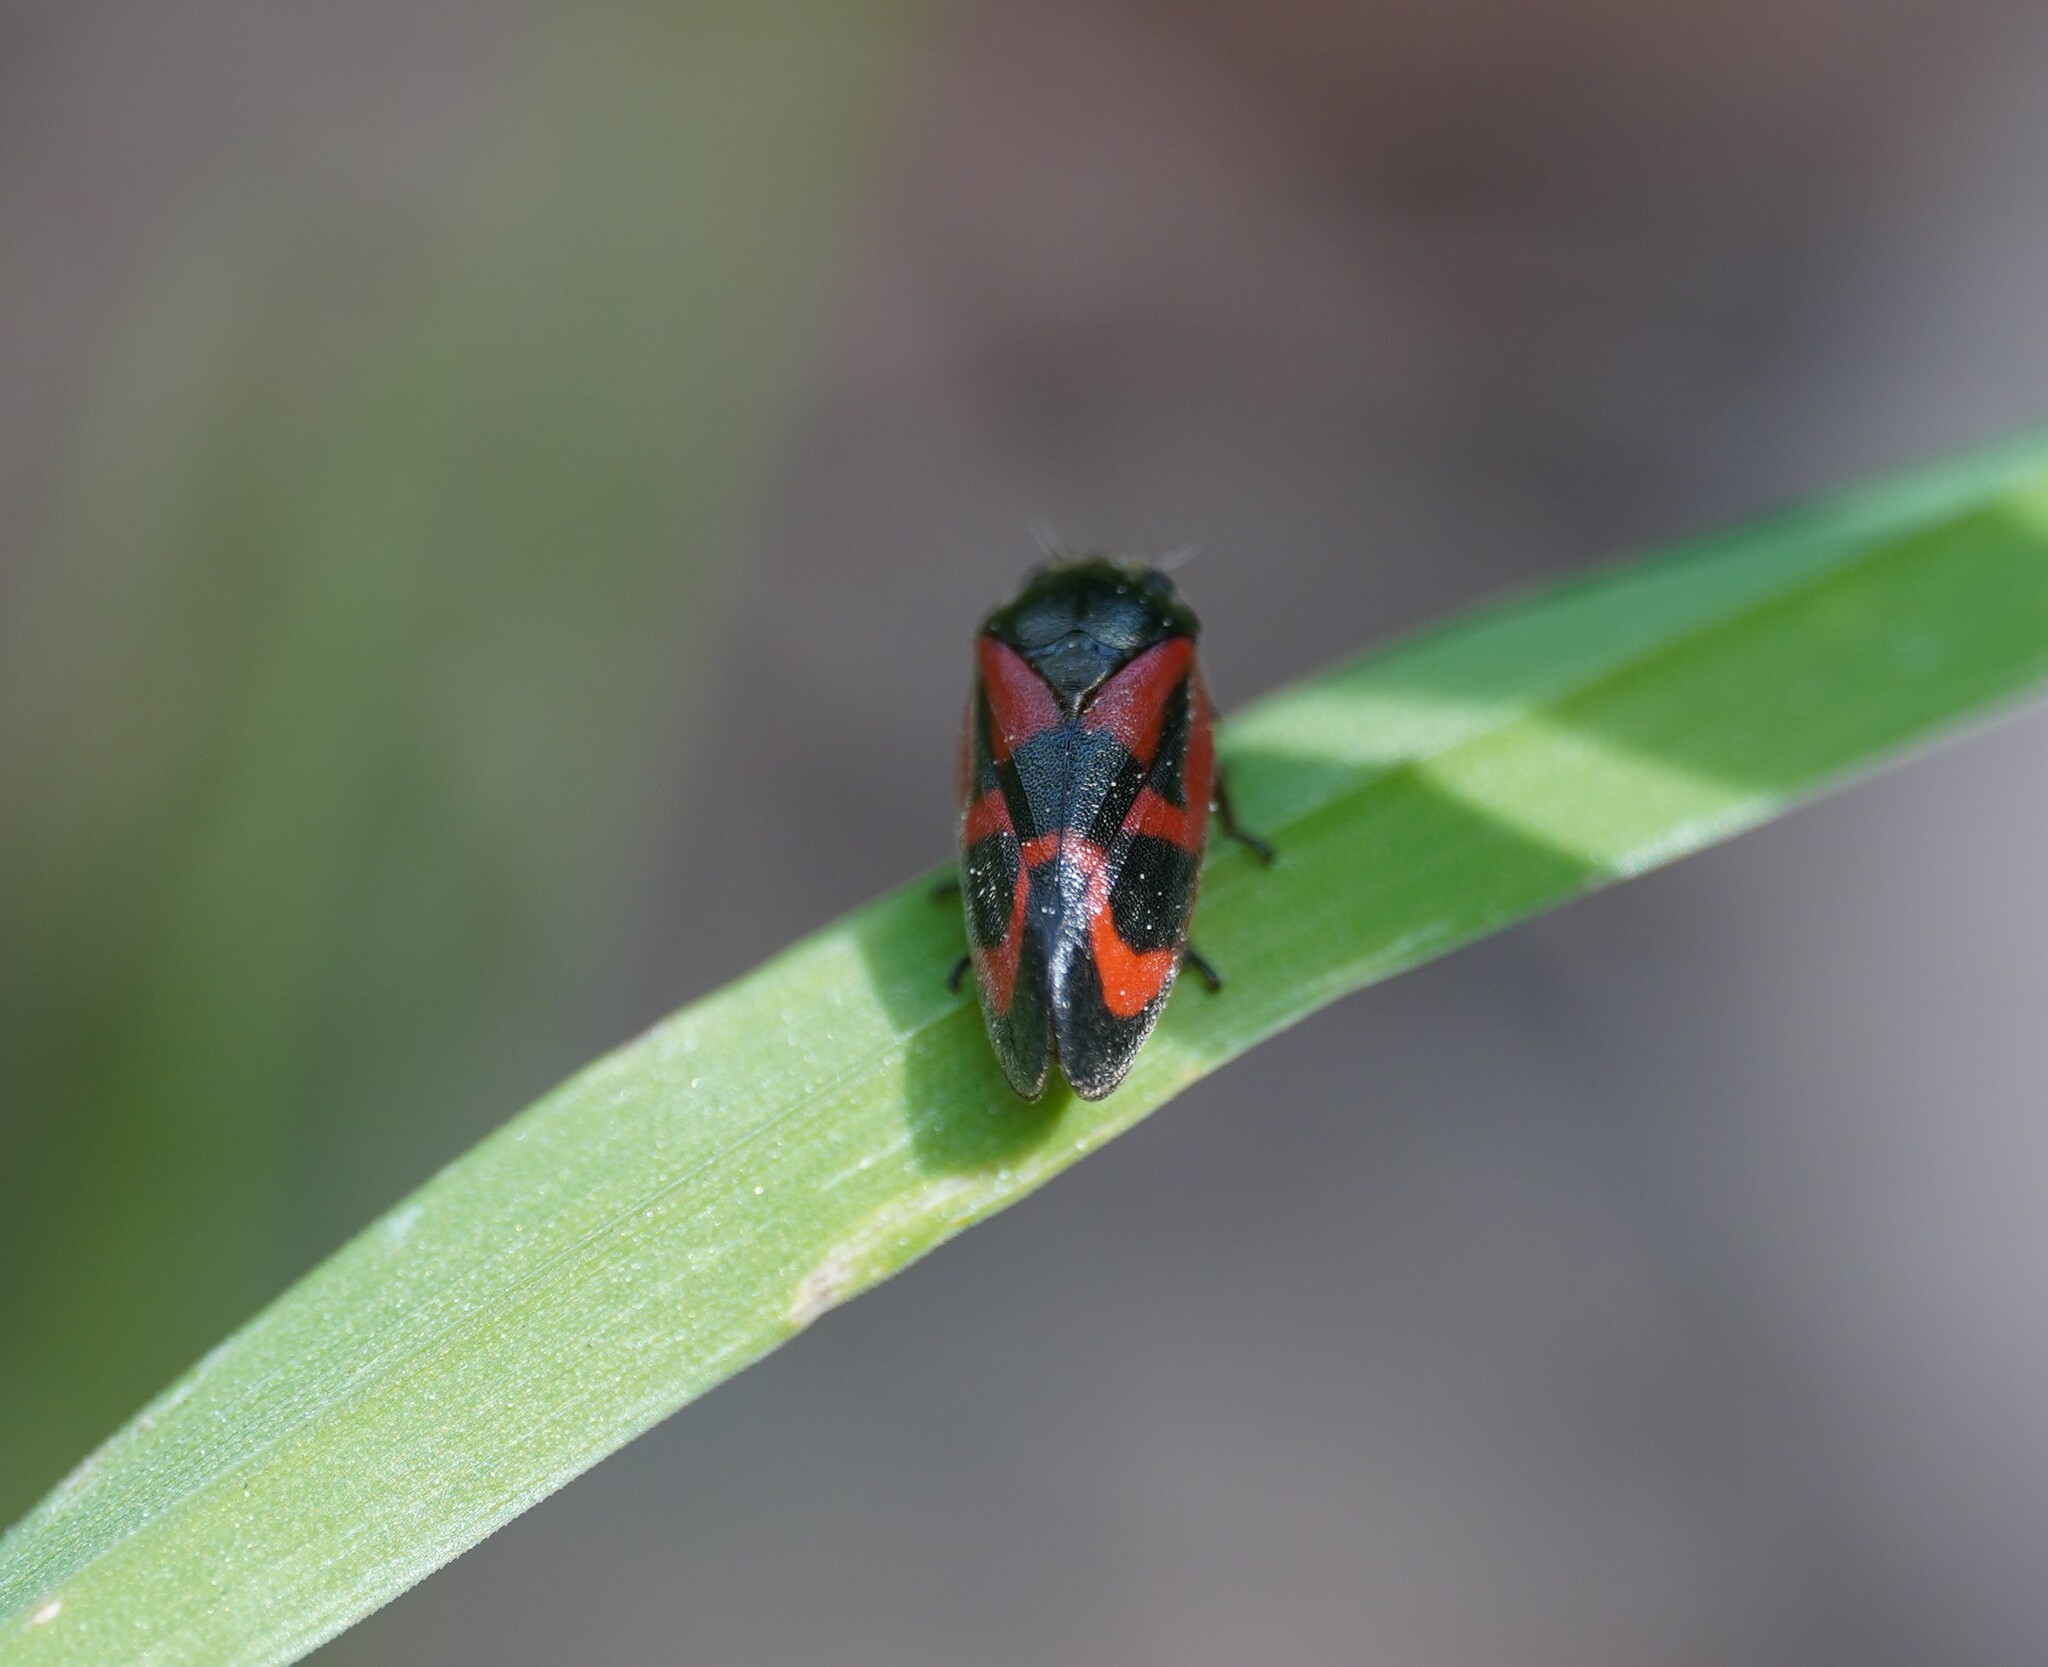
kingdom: Animalia
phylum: Arthropoda
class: Insecta
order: Hemiptera
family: Cercopidae
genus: Haematoloma
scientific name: Haematoloma dorsata
